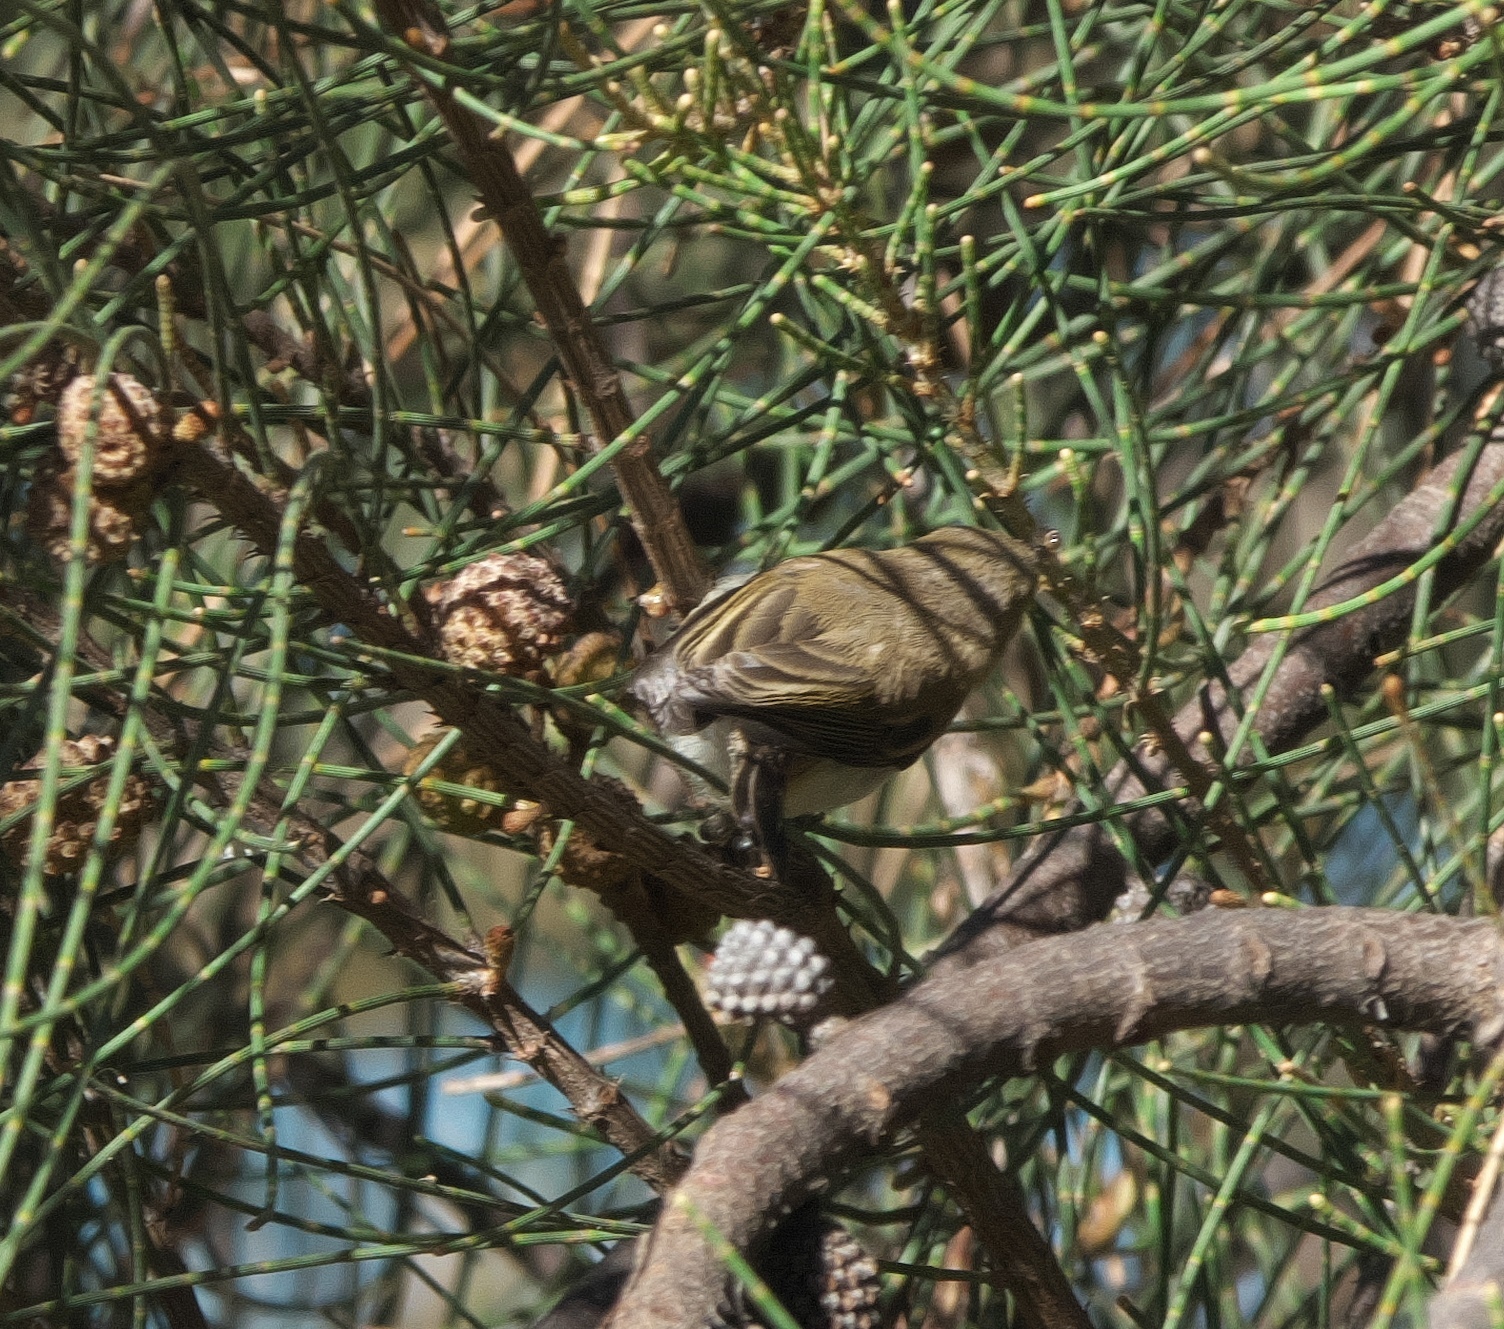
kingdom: Animalia
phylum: Chordata
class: Aves
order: Passeriformes
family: Acanthizidae
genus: Gerygone
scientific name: Gerygone fusca
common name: Western gerygone
